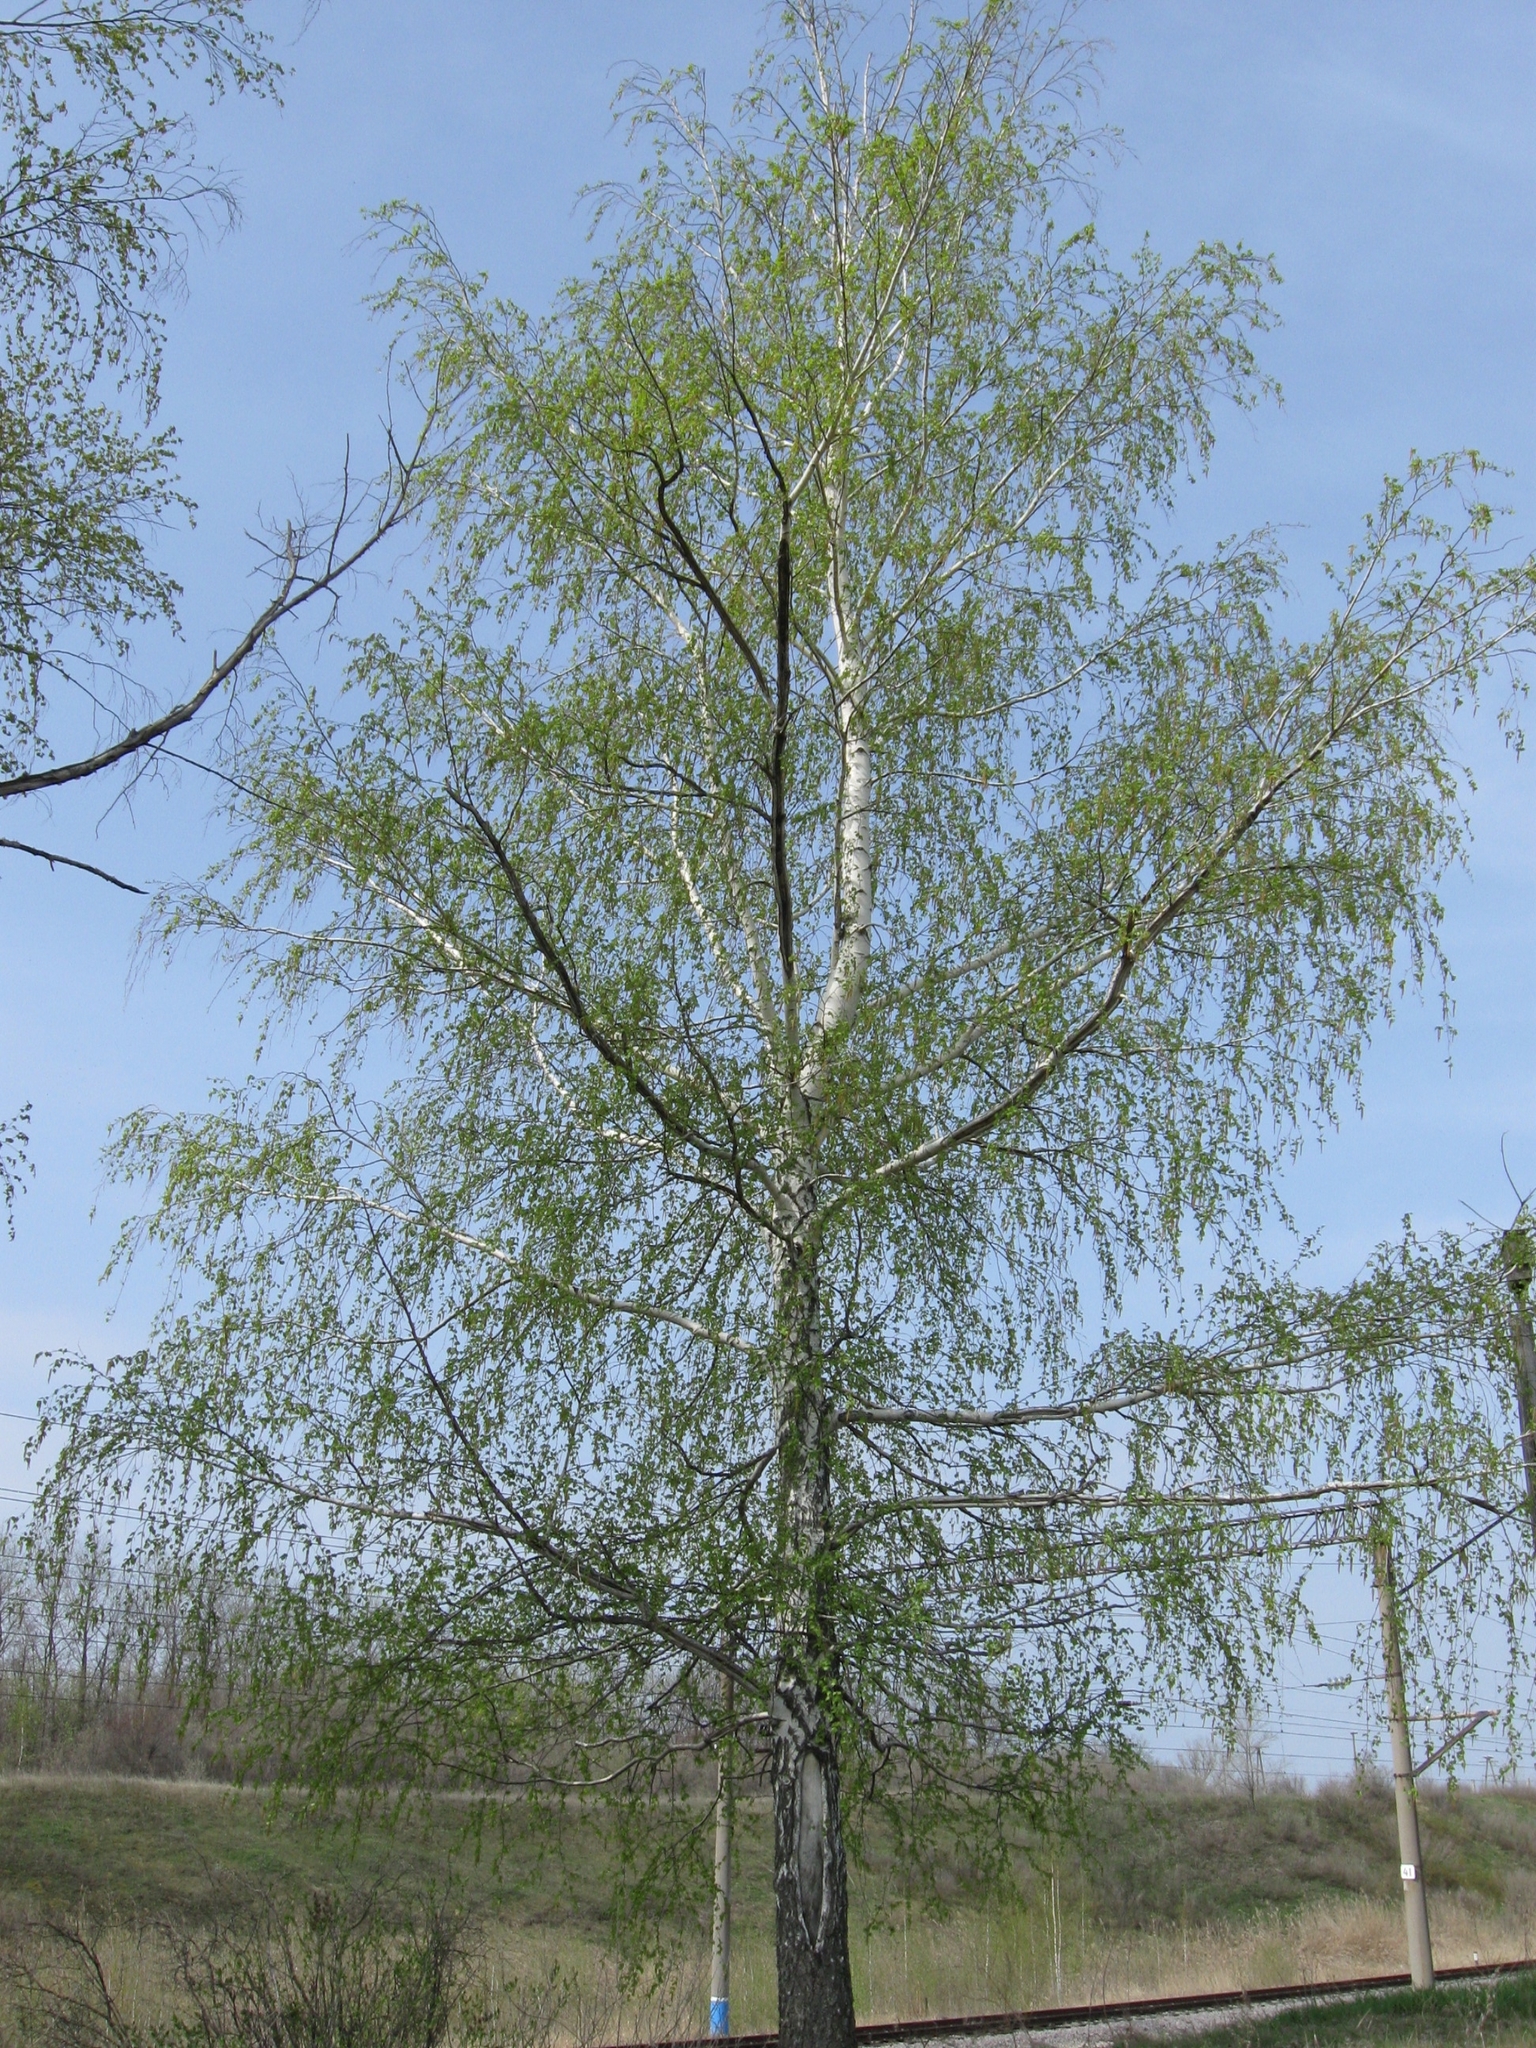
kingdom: Plantae
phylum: Tracheophyta
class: Magnoliopsida
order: Fagales
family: Betulaceae
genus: Betula
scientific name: Betula pendula
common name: Silver birch
